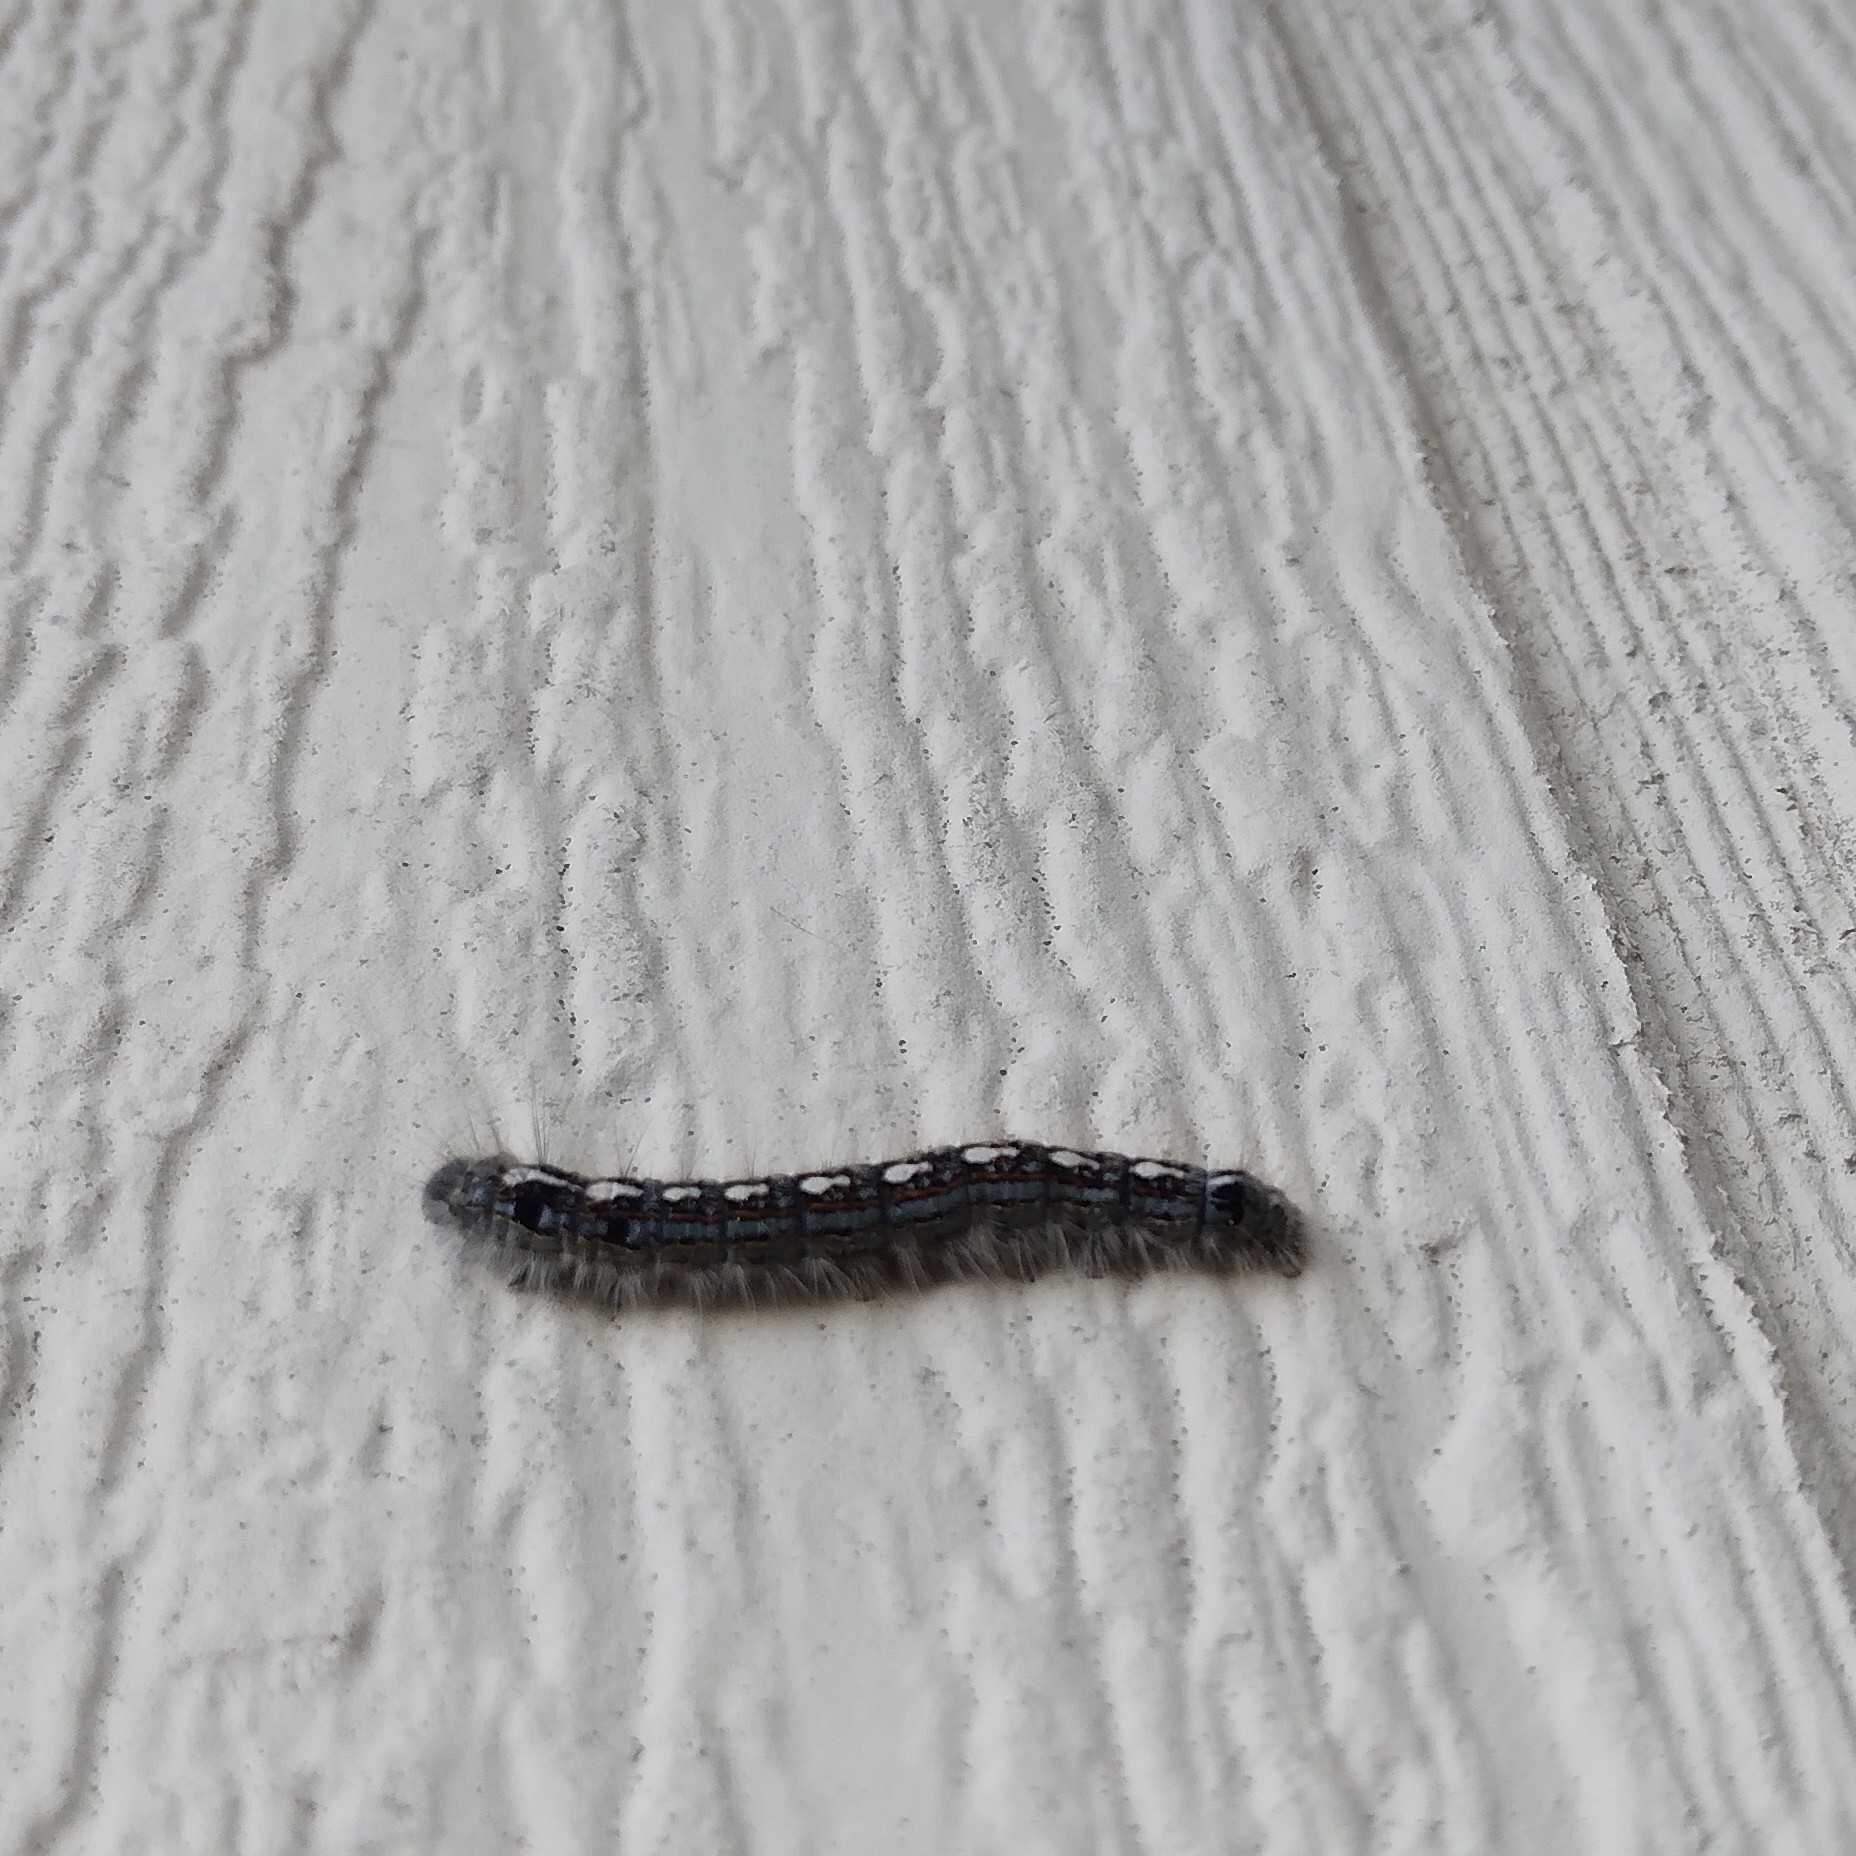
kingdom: Animalia
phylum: Arthropoda
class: Insecta
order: Lepidoptera
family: Lasiocampidae
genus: Malacosoma
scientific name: Malacosoma disstria
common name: Forest tent caterpillar
